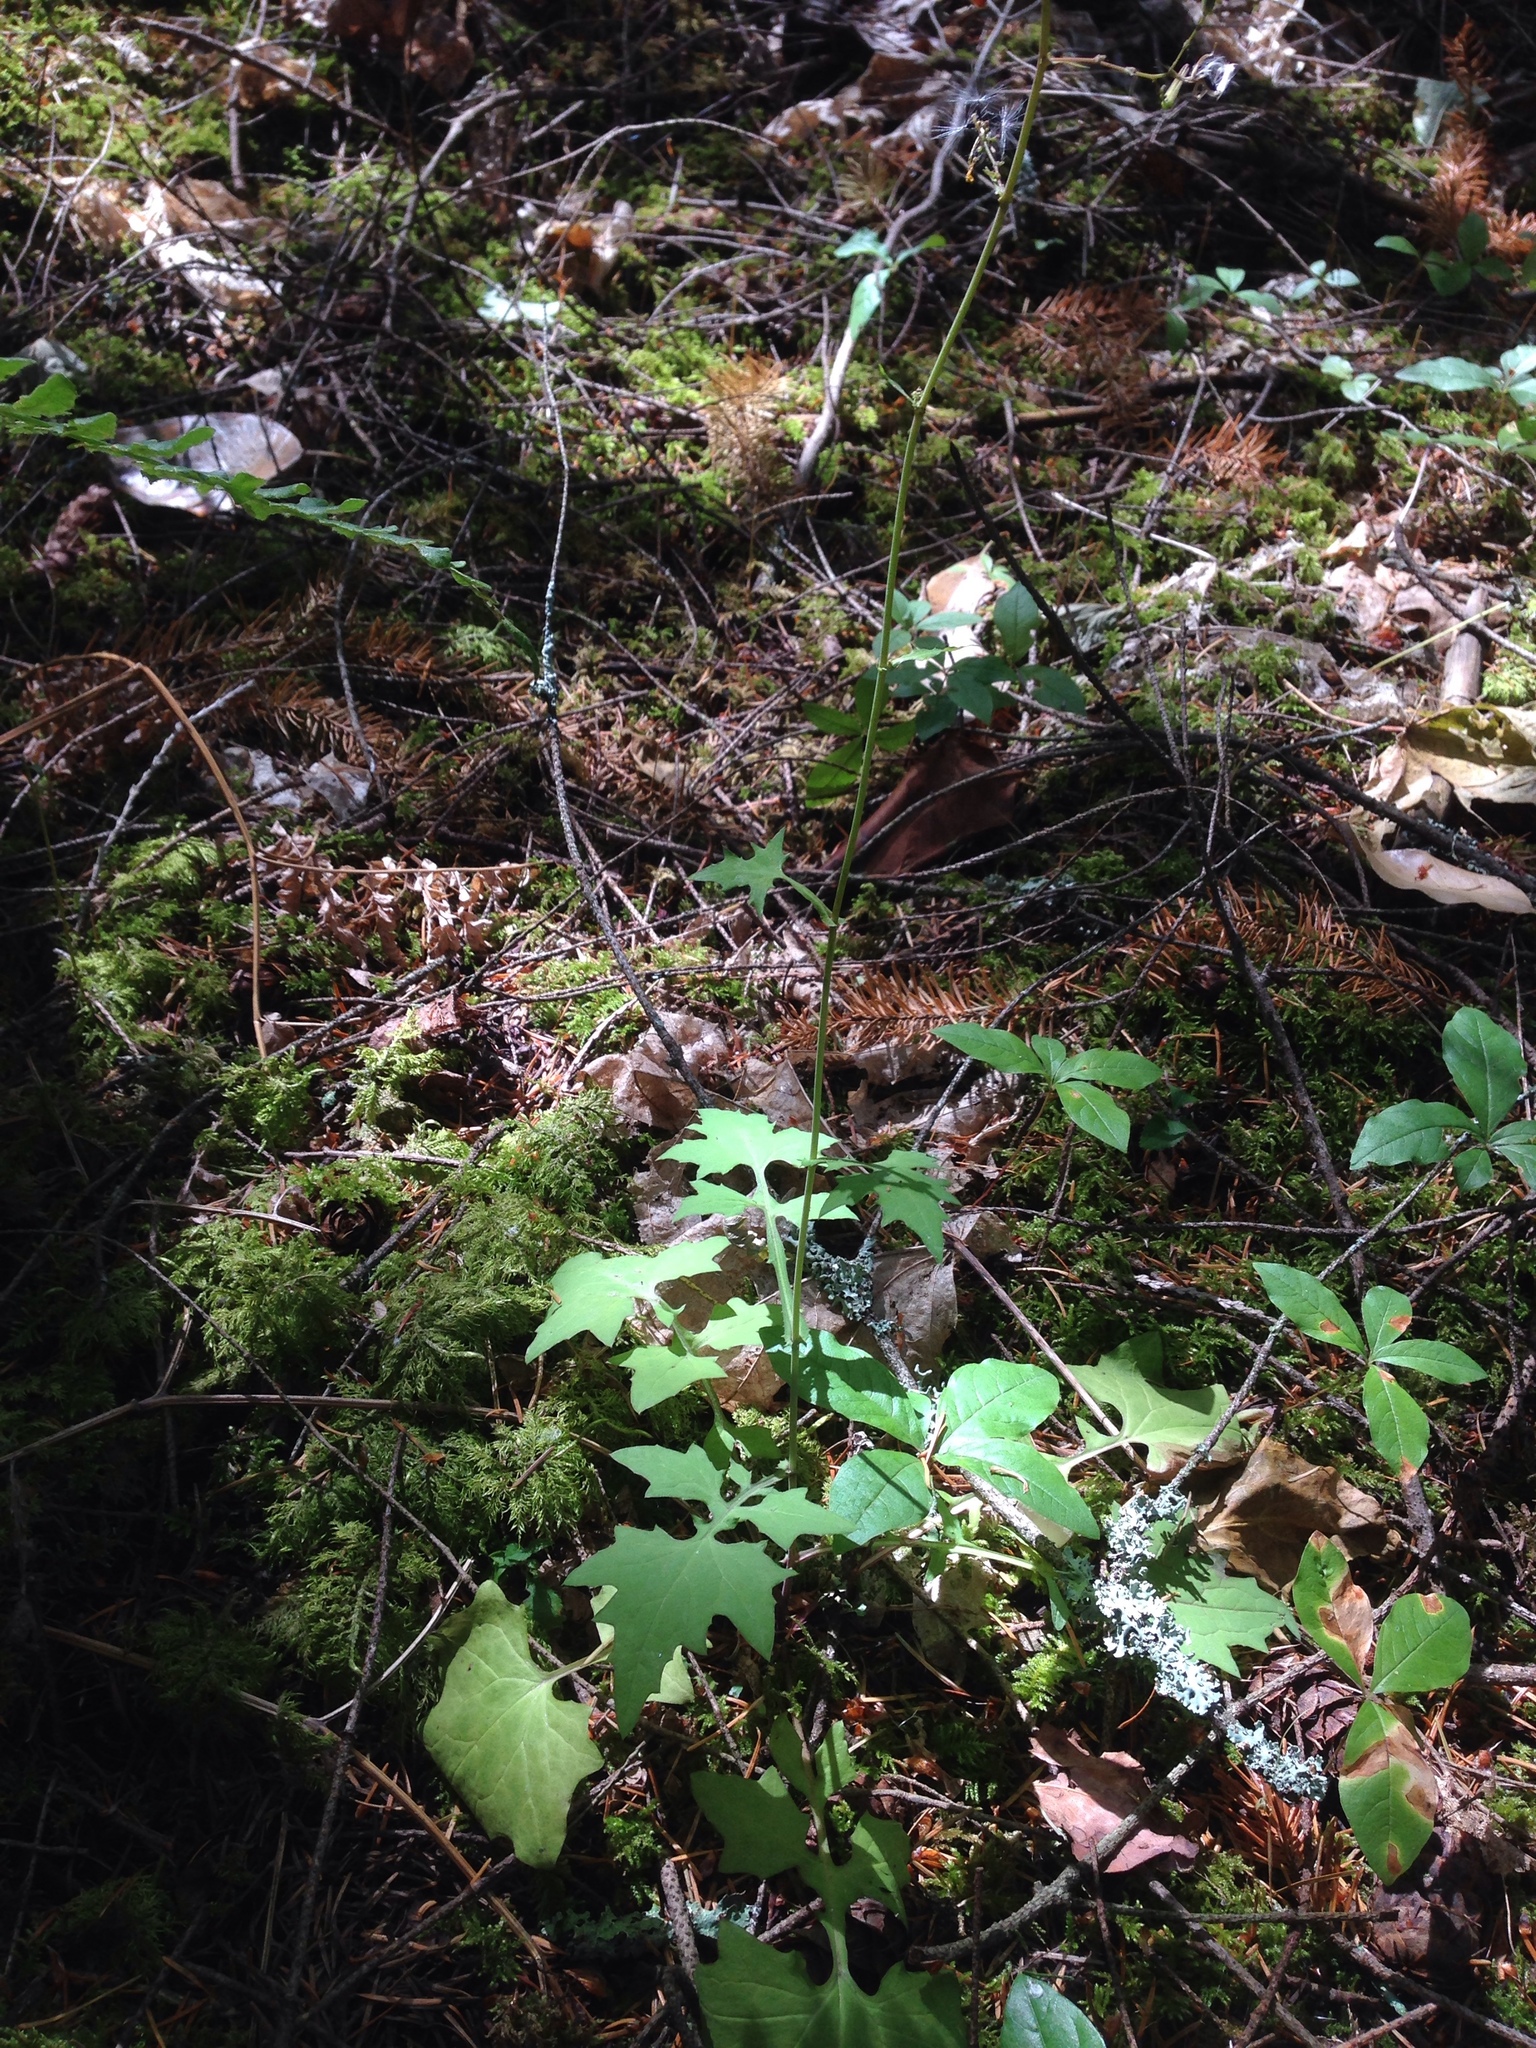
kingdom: Plantae
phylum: Tracheophyta
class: Magnoliopsida
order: Asterales
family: Asteraceae
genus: Mycelis
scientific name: Mycelis muralis
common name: Wall lettuce
